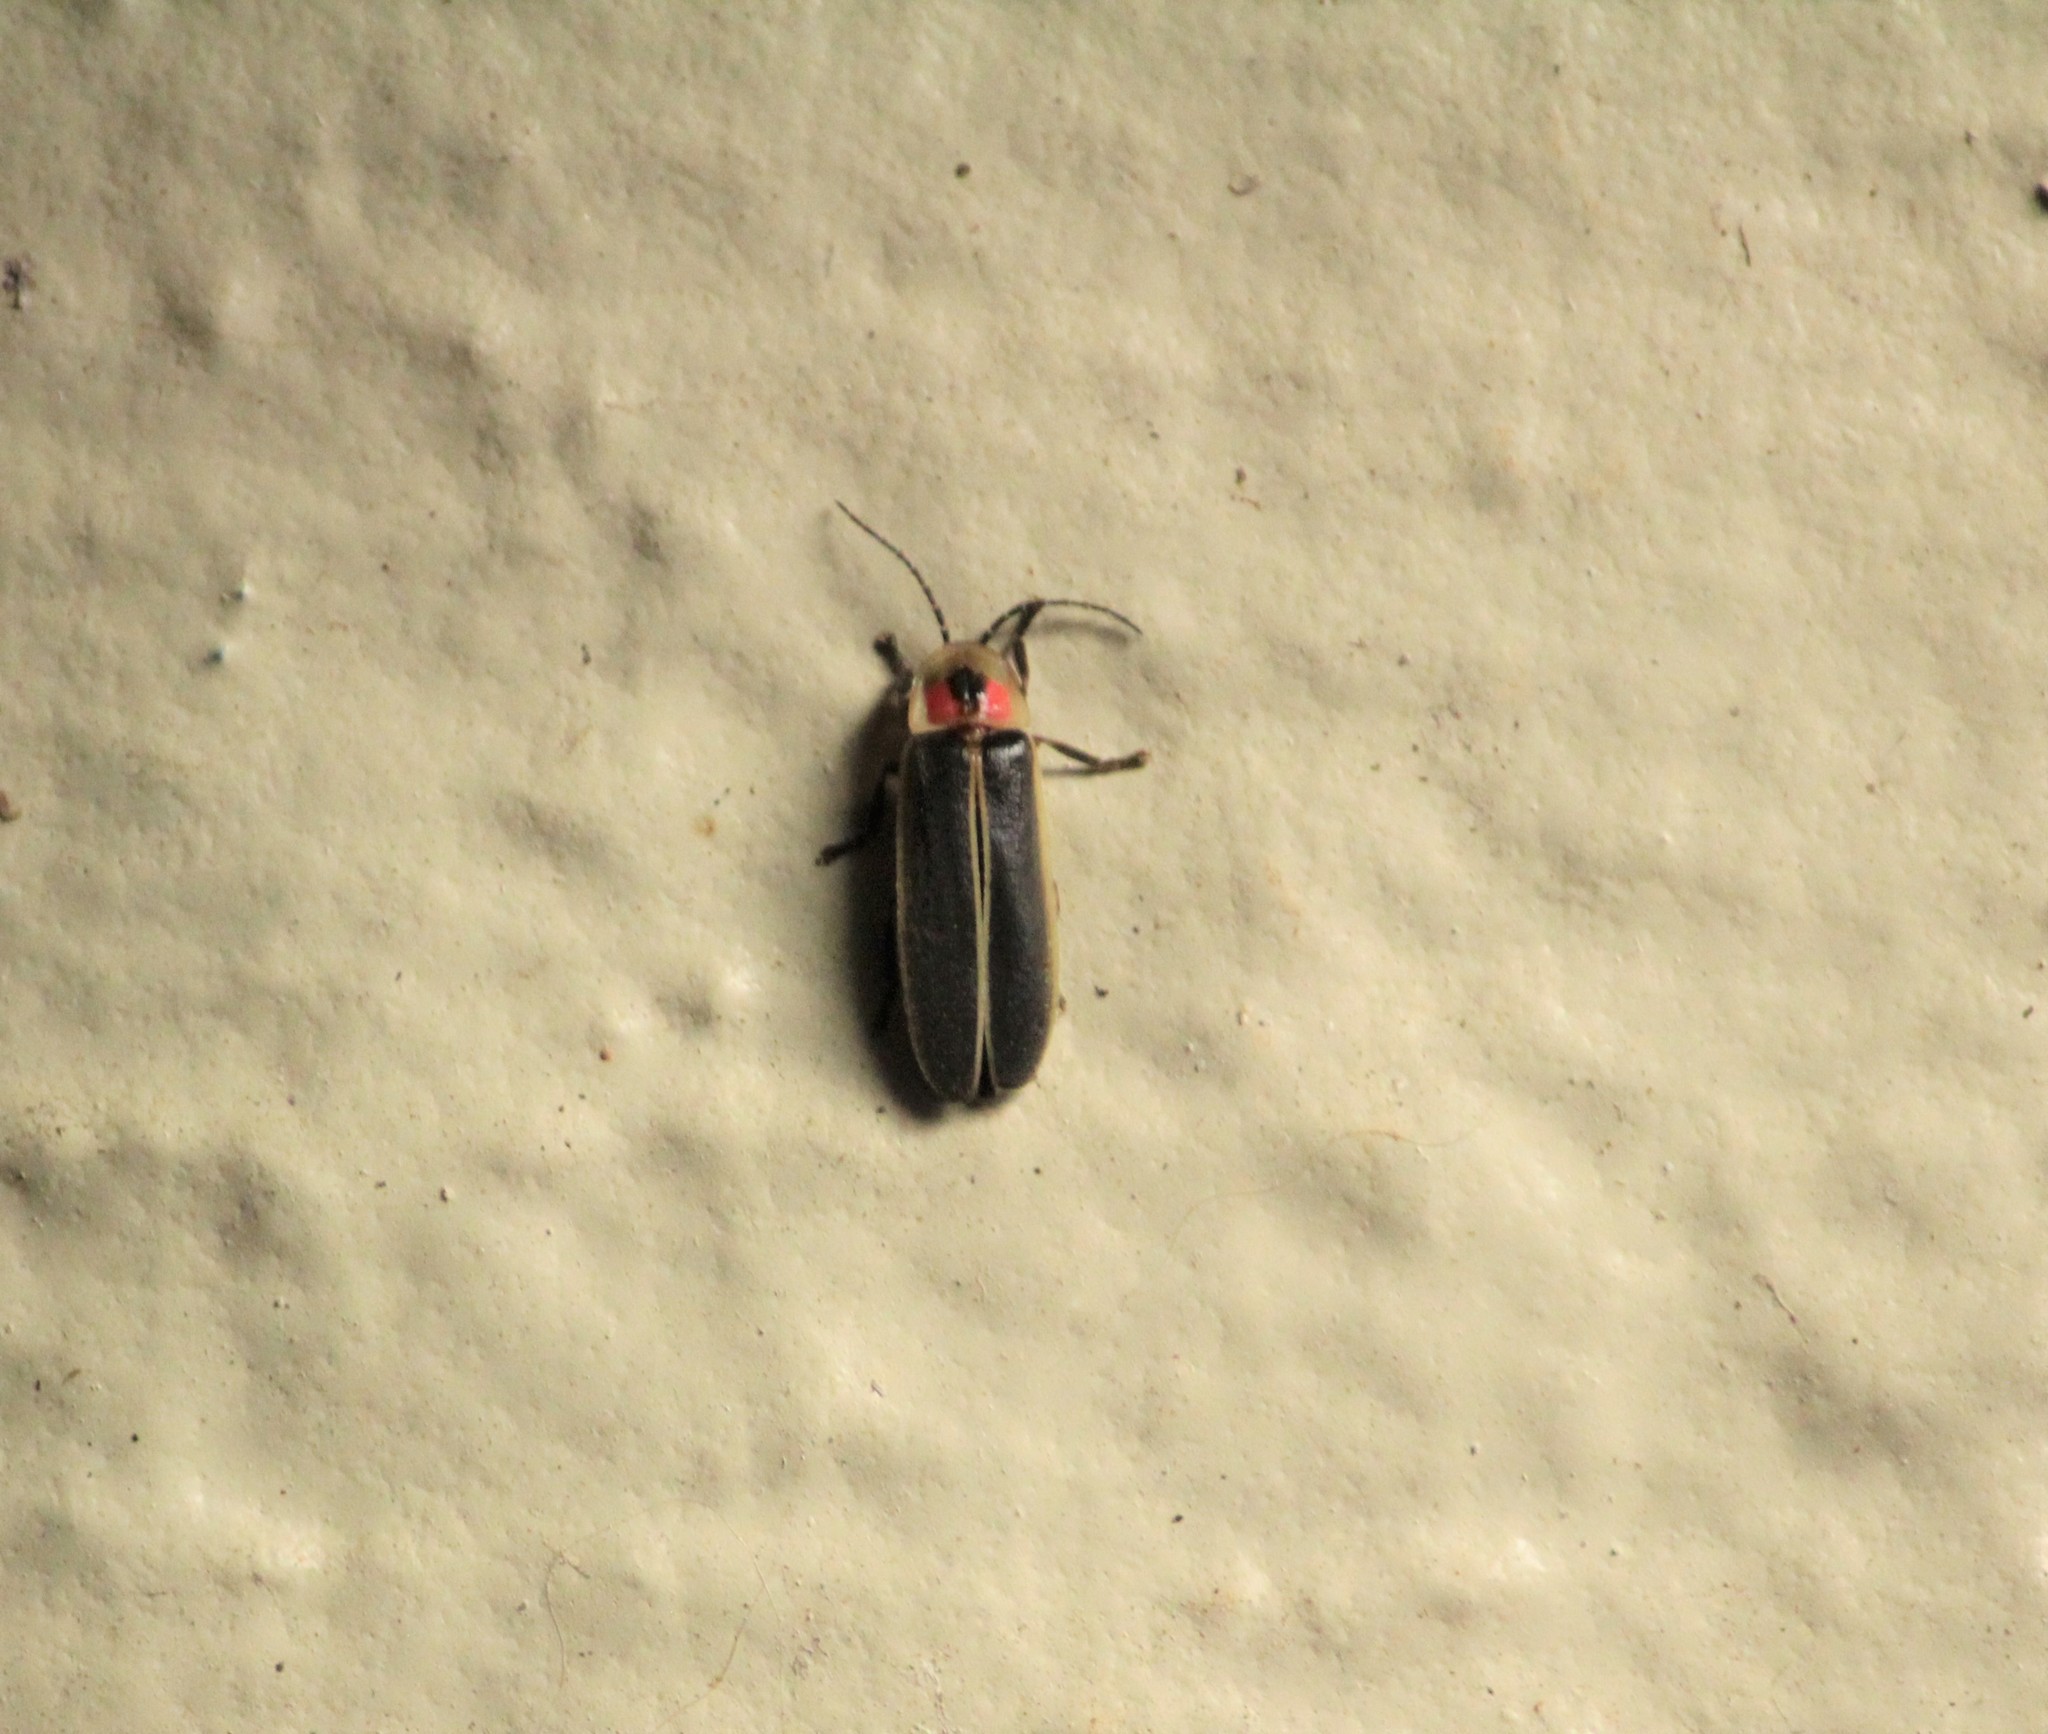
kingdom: Animalia
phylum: Arthropoda
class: Insecta
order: Coleoptera
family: Lampyridae
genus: Photinus
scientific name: Photinus pyralis
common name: Big dipper firefly
